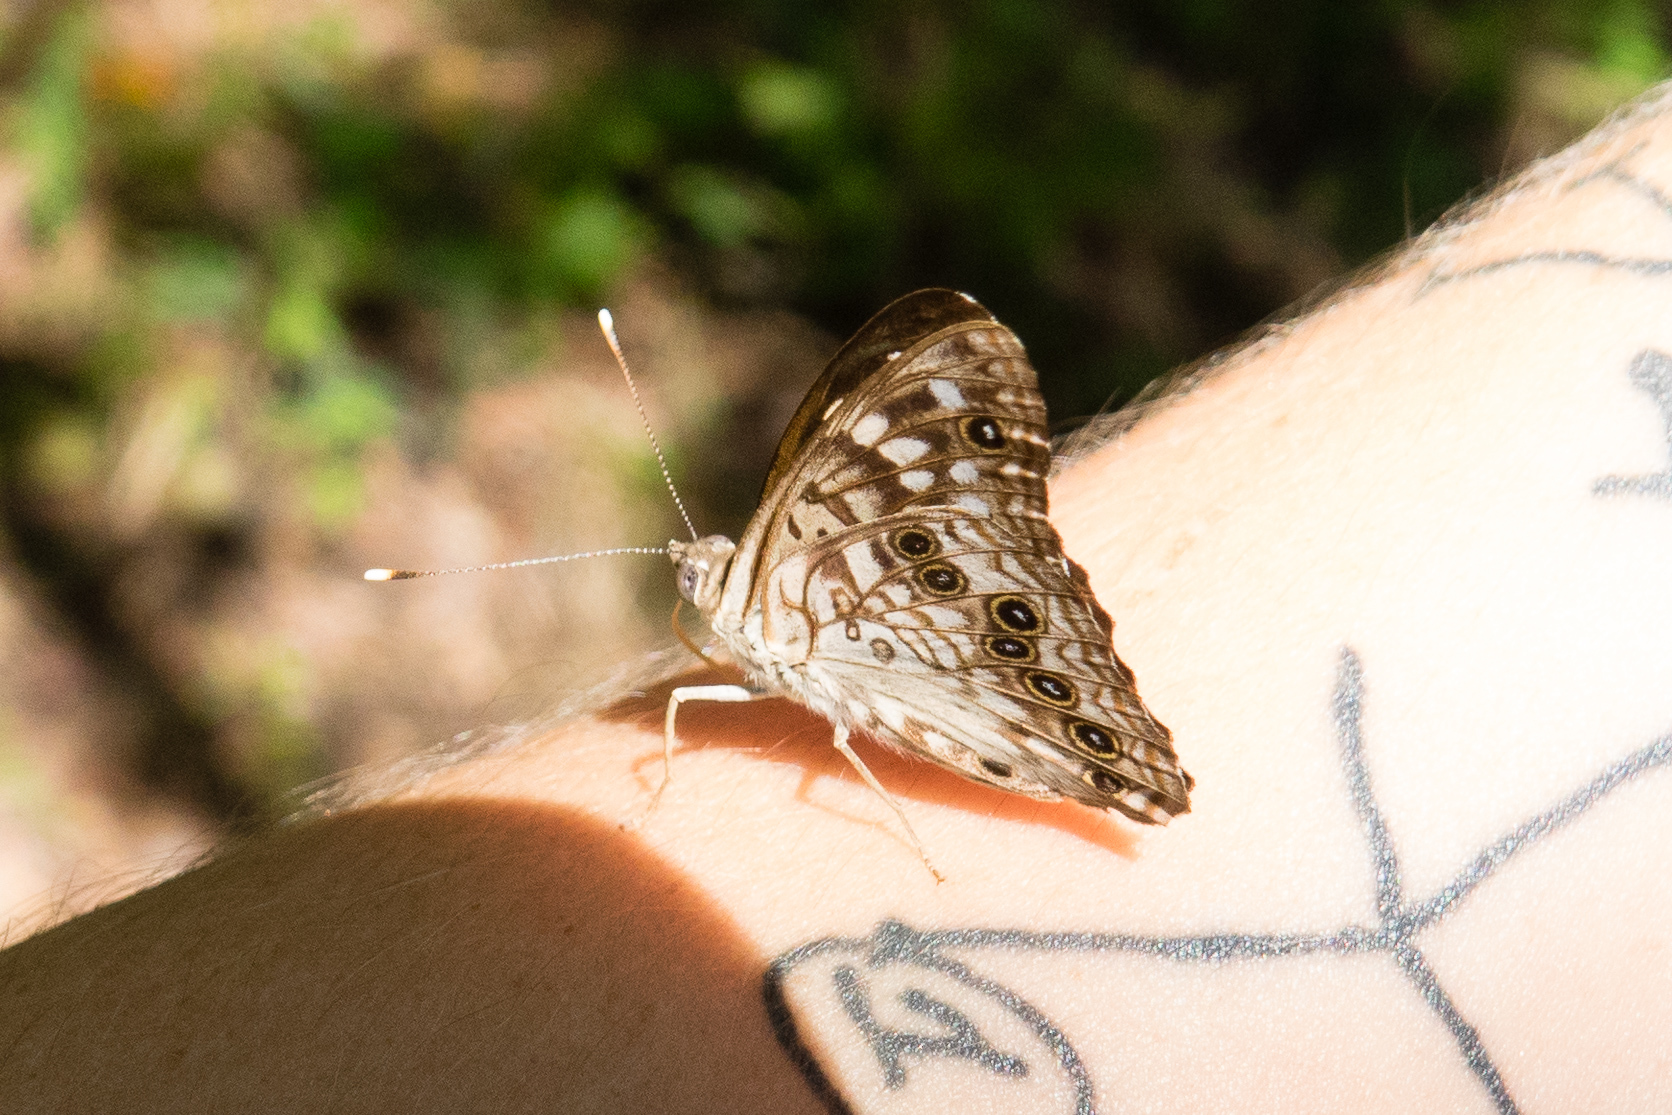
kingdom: Animalia
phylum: Arthropoda
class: Insecta
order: Lepidoptera
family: Nymphalidae
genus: Asterocampa
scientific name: Asterocampa celtis
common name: Hackberry emperor
